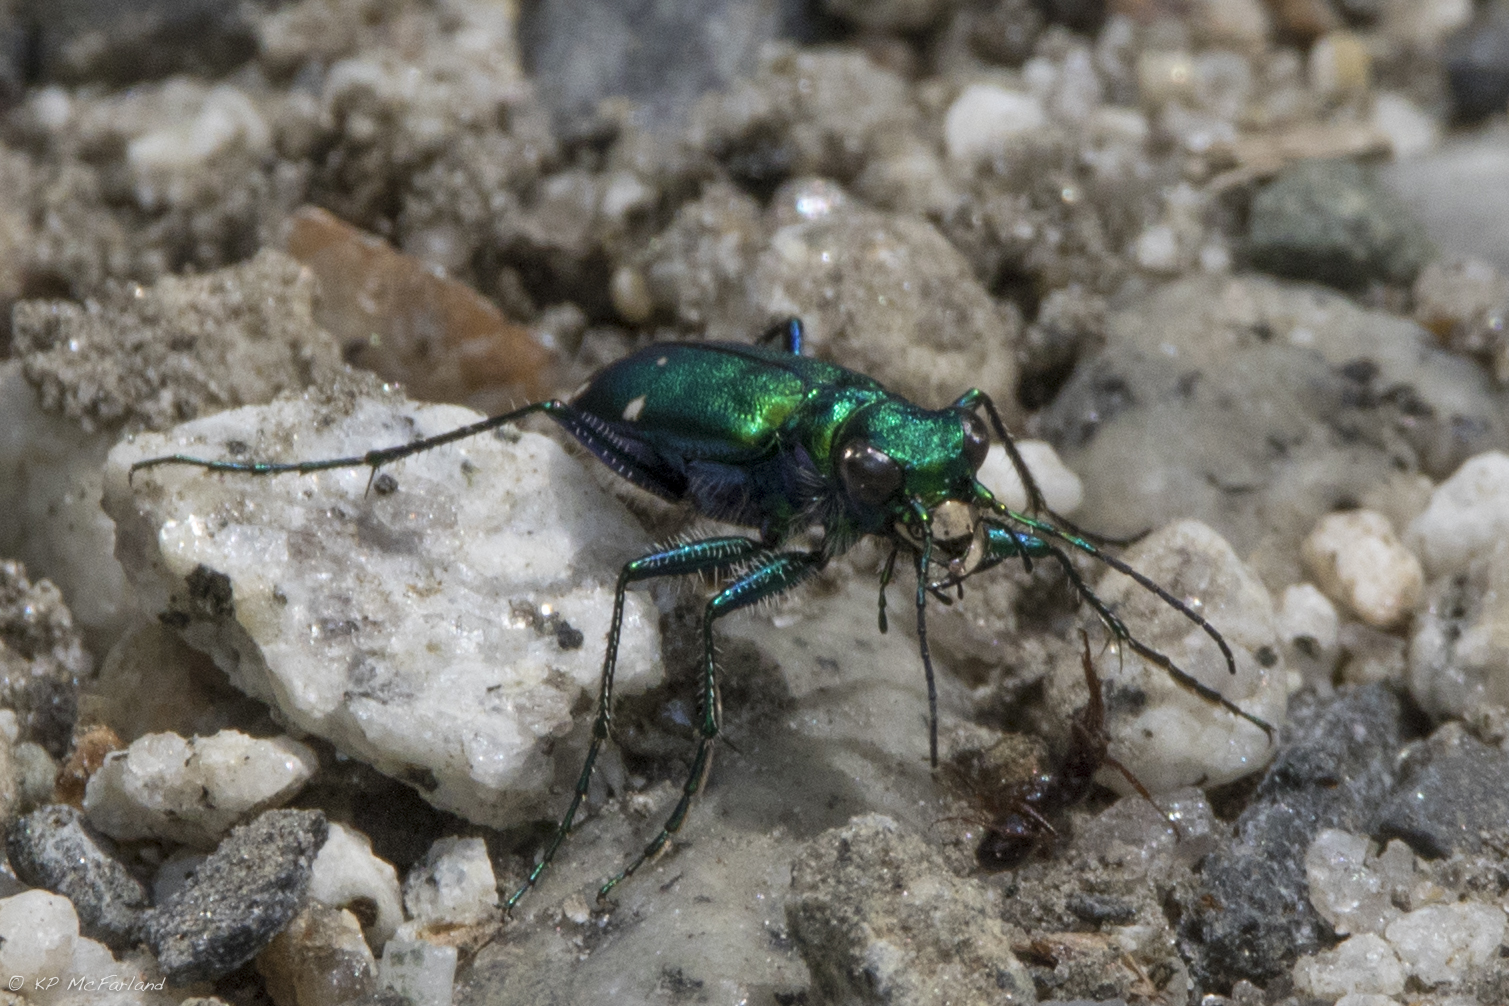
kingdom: Animalia
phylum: Arthropoda
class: Insecta
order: Coleoptera
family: Carabidae
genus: Cicindela
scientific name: Cicindela sexguttata
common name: Six-spotted tiger beetle
